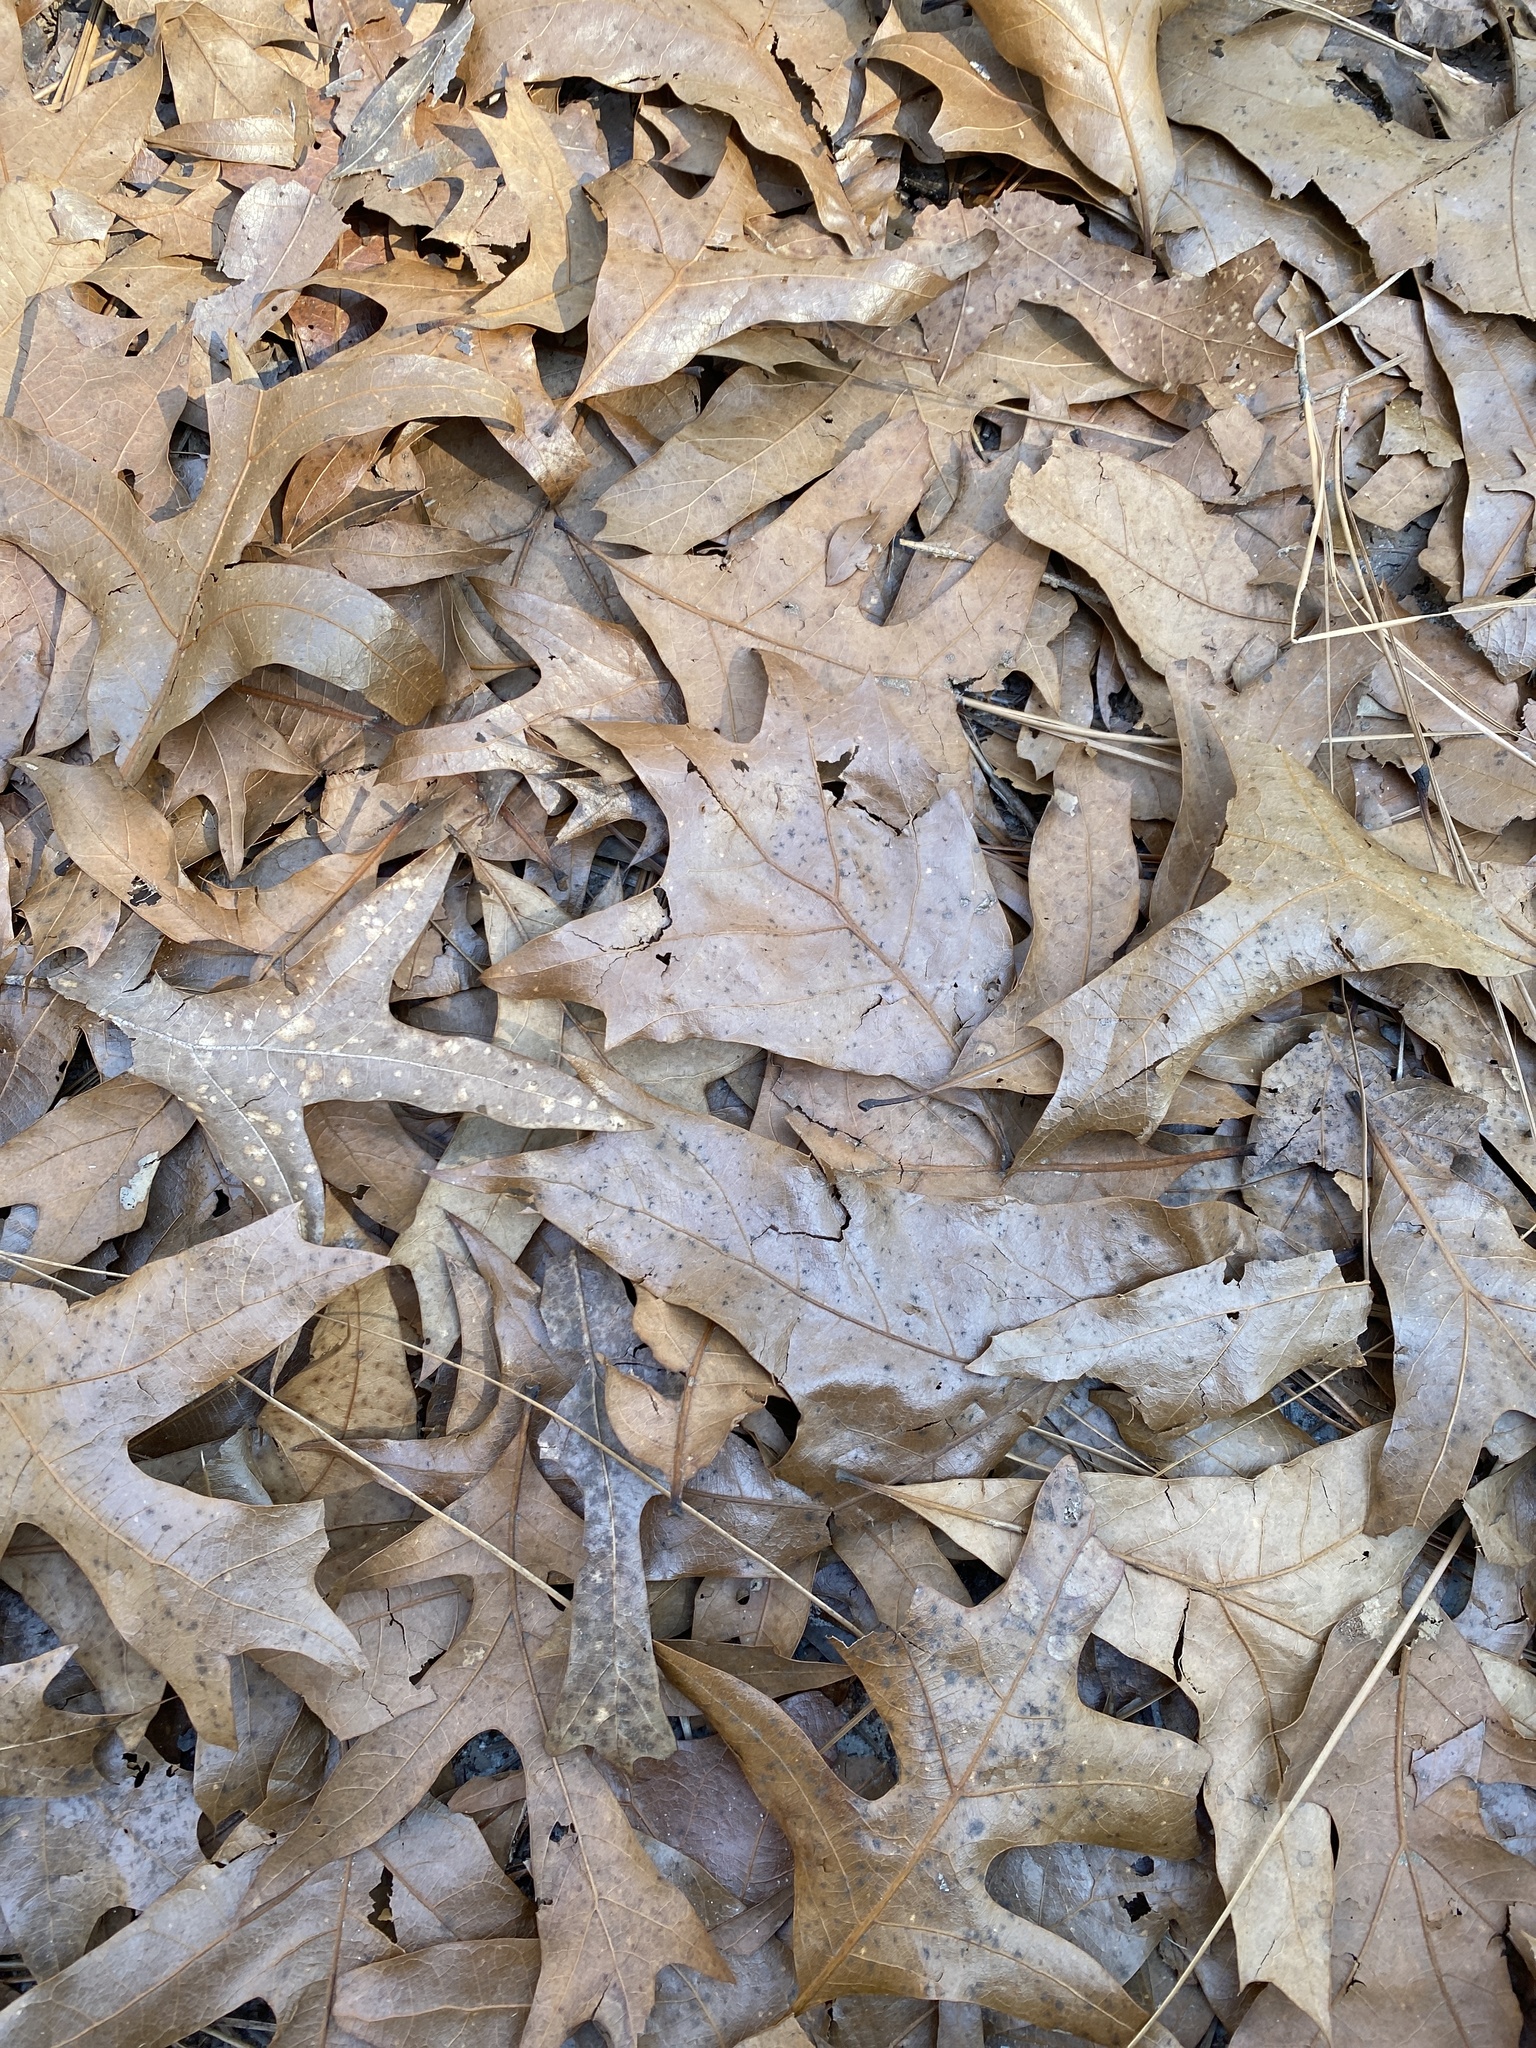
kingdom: Plantae
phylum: Tracheophyta
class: Magnoliopsida
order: Fagales
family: Fagaceae
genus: Quercus
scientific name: Quercus laevis
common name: Turkey oak
